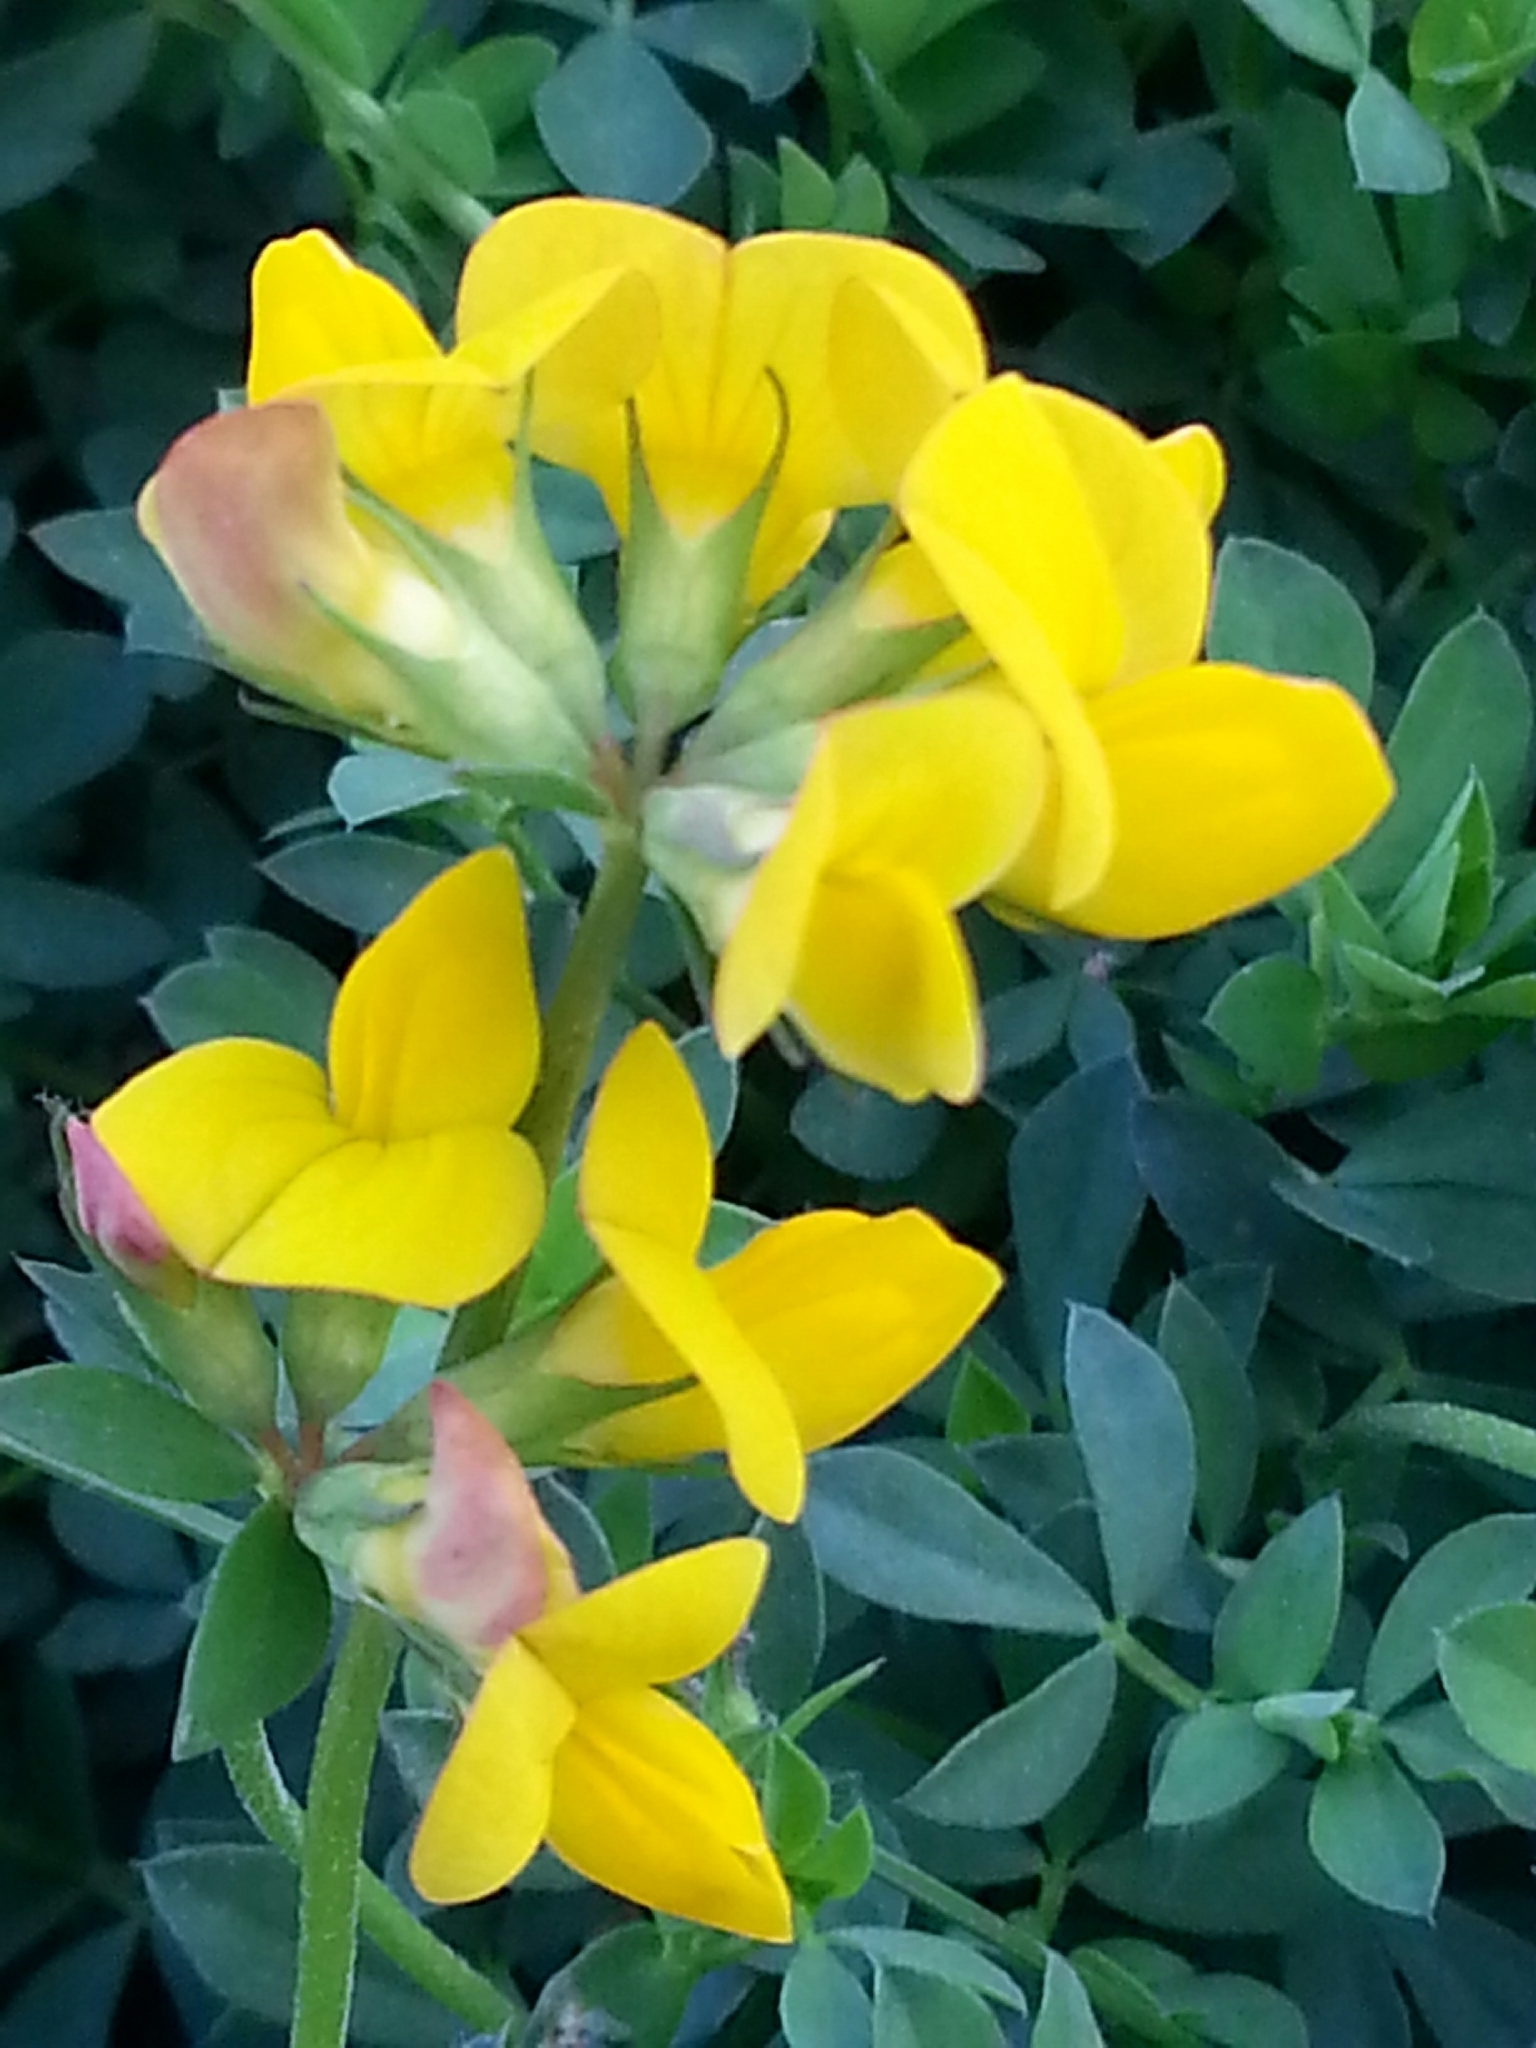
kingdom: Plantae
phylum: Tracheophyta
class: Magnoliopsida
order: Fabales
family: Fabaceae
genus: Lotus
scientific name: Lotus corniculatus
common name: Common bird's-foot-trefoil
